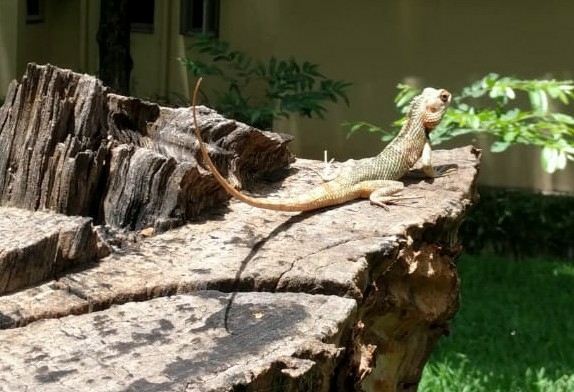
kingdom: Animalia
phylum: Chordata
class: Squamata
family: Agamidae
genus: Calotes
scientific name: Calotes versicolor
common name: Oriental garden lizard
